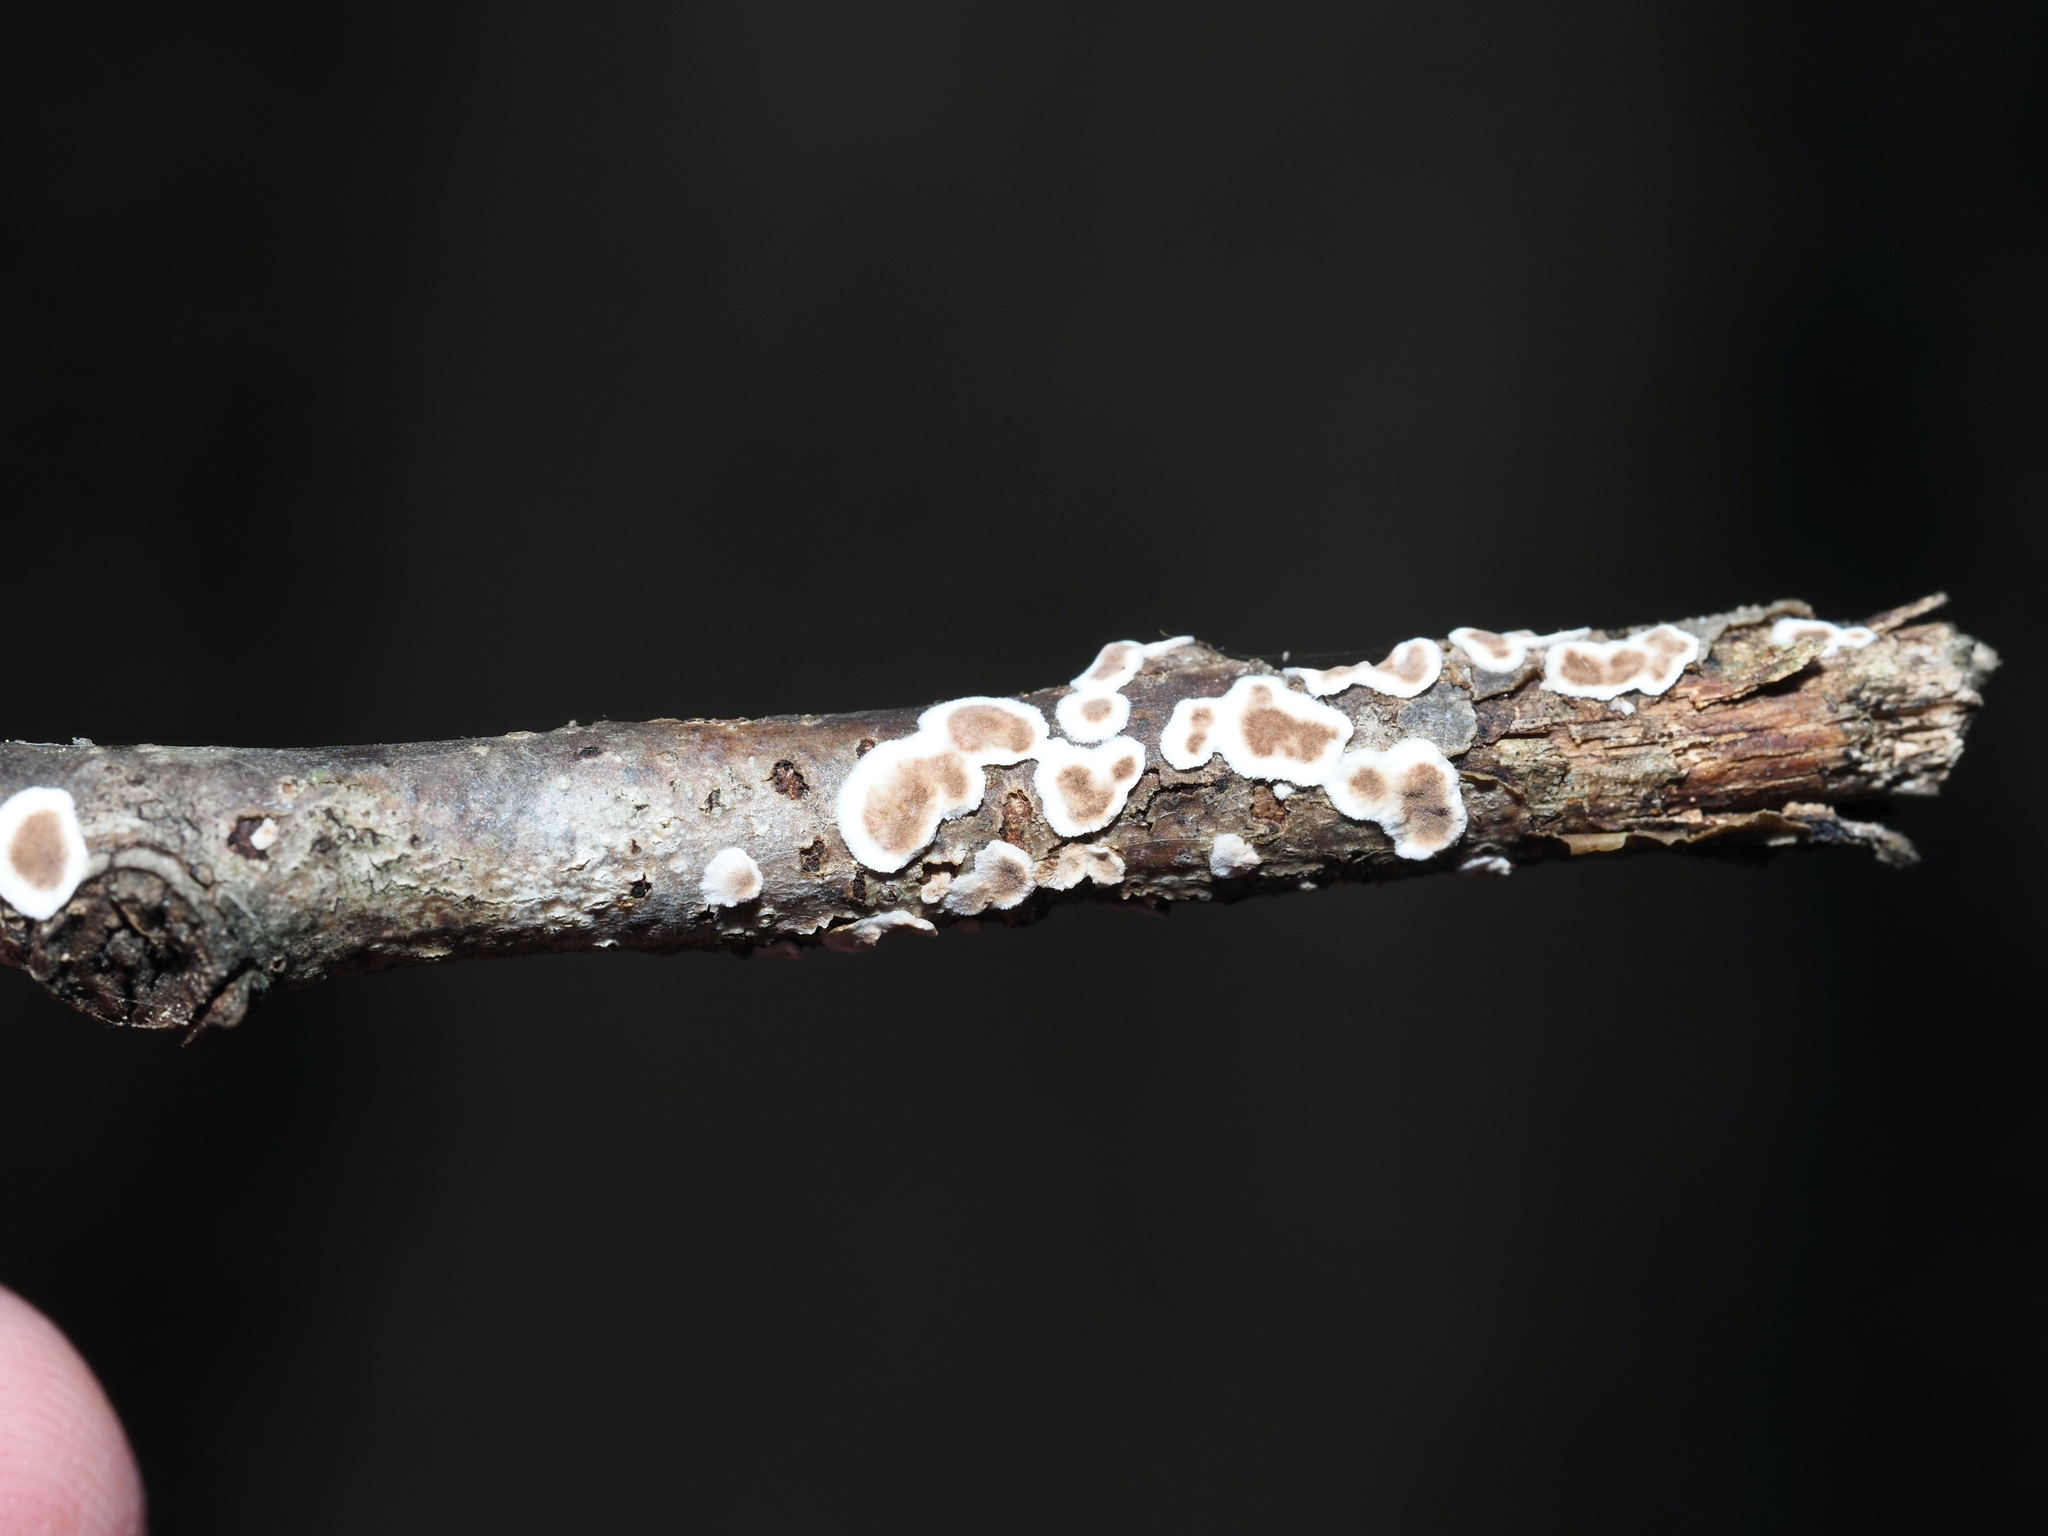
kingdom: Fungi
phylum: Basidiomycota
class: Agaricomycetes
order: Russulales
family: Peniophoraceae
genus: Peniophora
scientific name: Peniophora albobadia
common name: Giraffe spots
